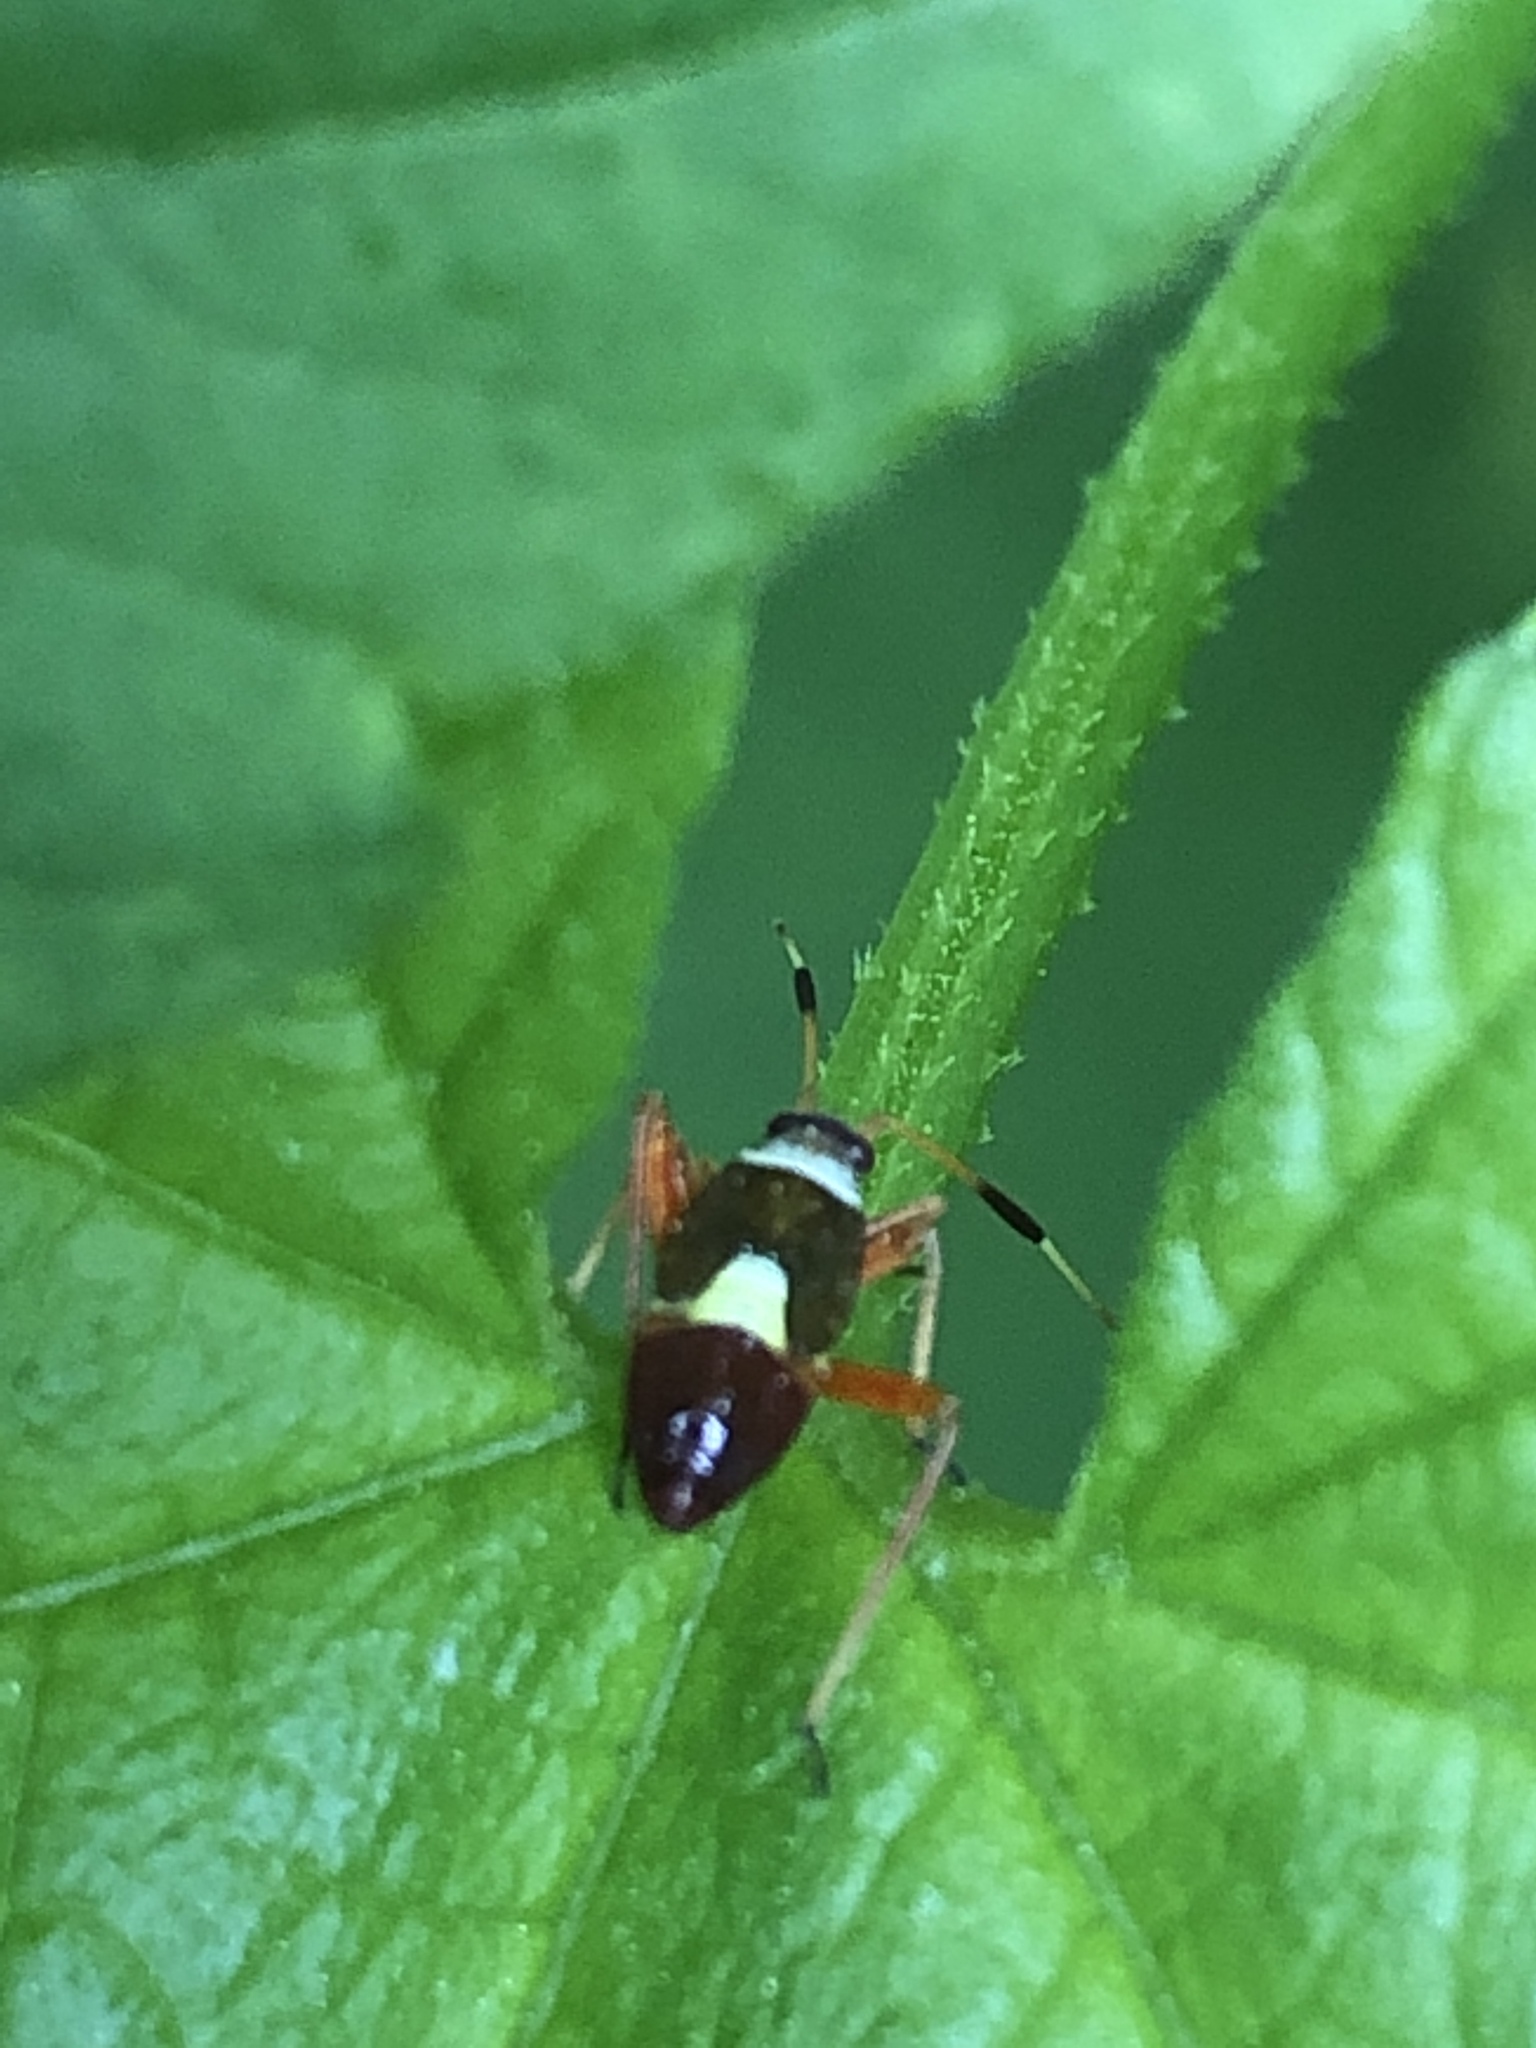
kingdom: Animalia
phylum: Arthropoda
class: Insecta
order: Hemiptera
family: Miridae
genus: Closterotomus
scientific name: Closterotomus biclavatus
